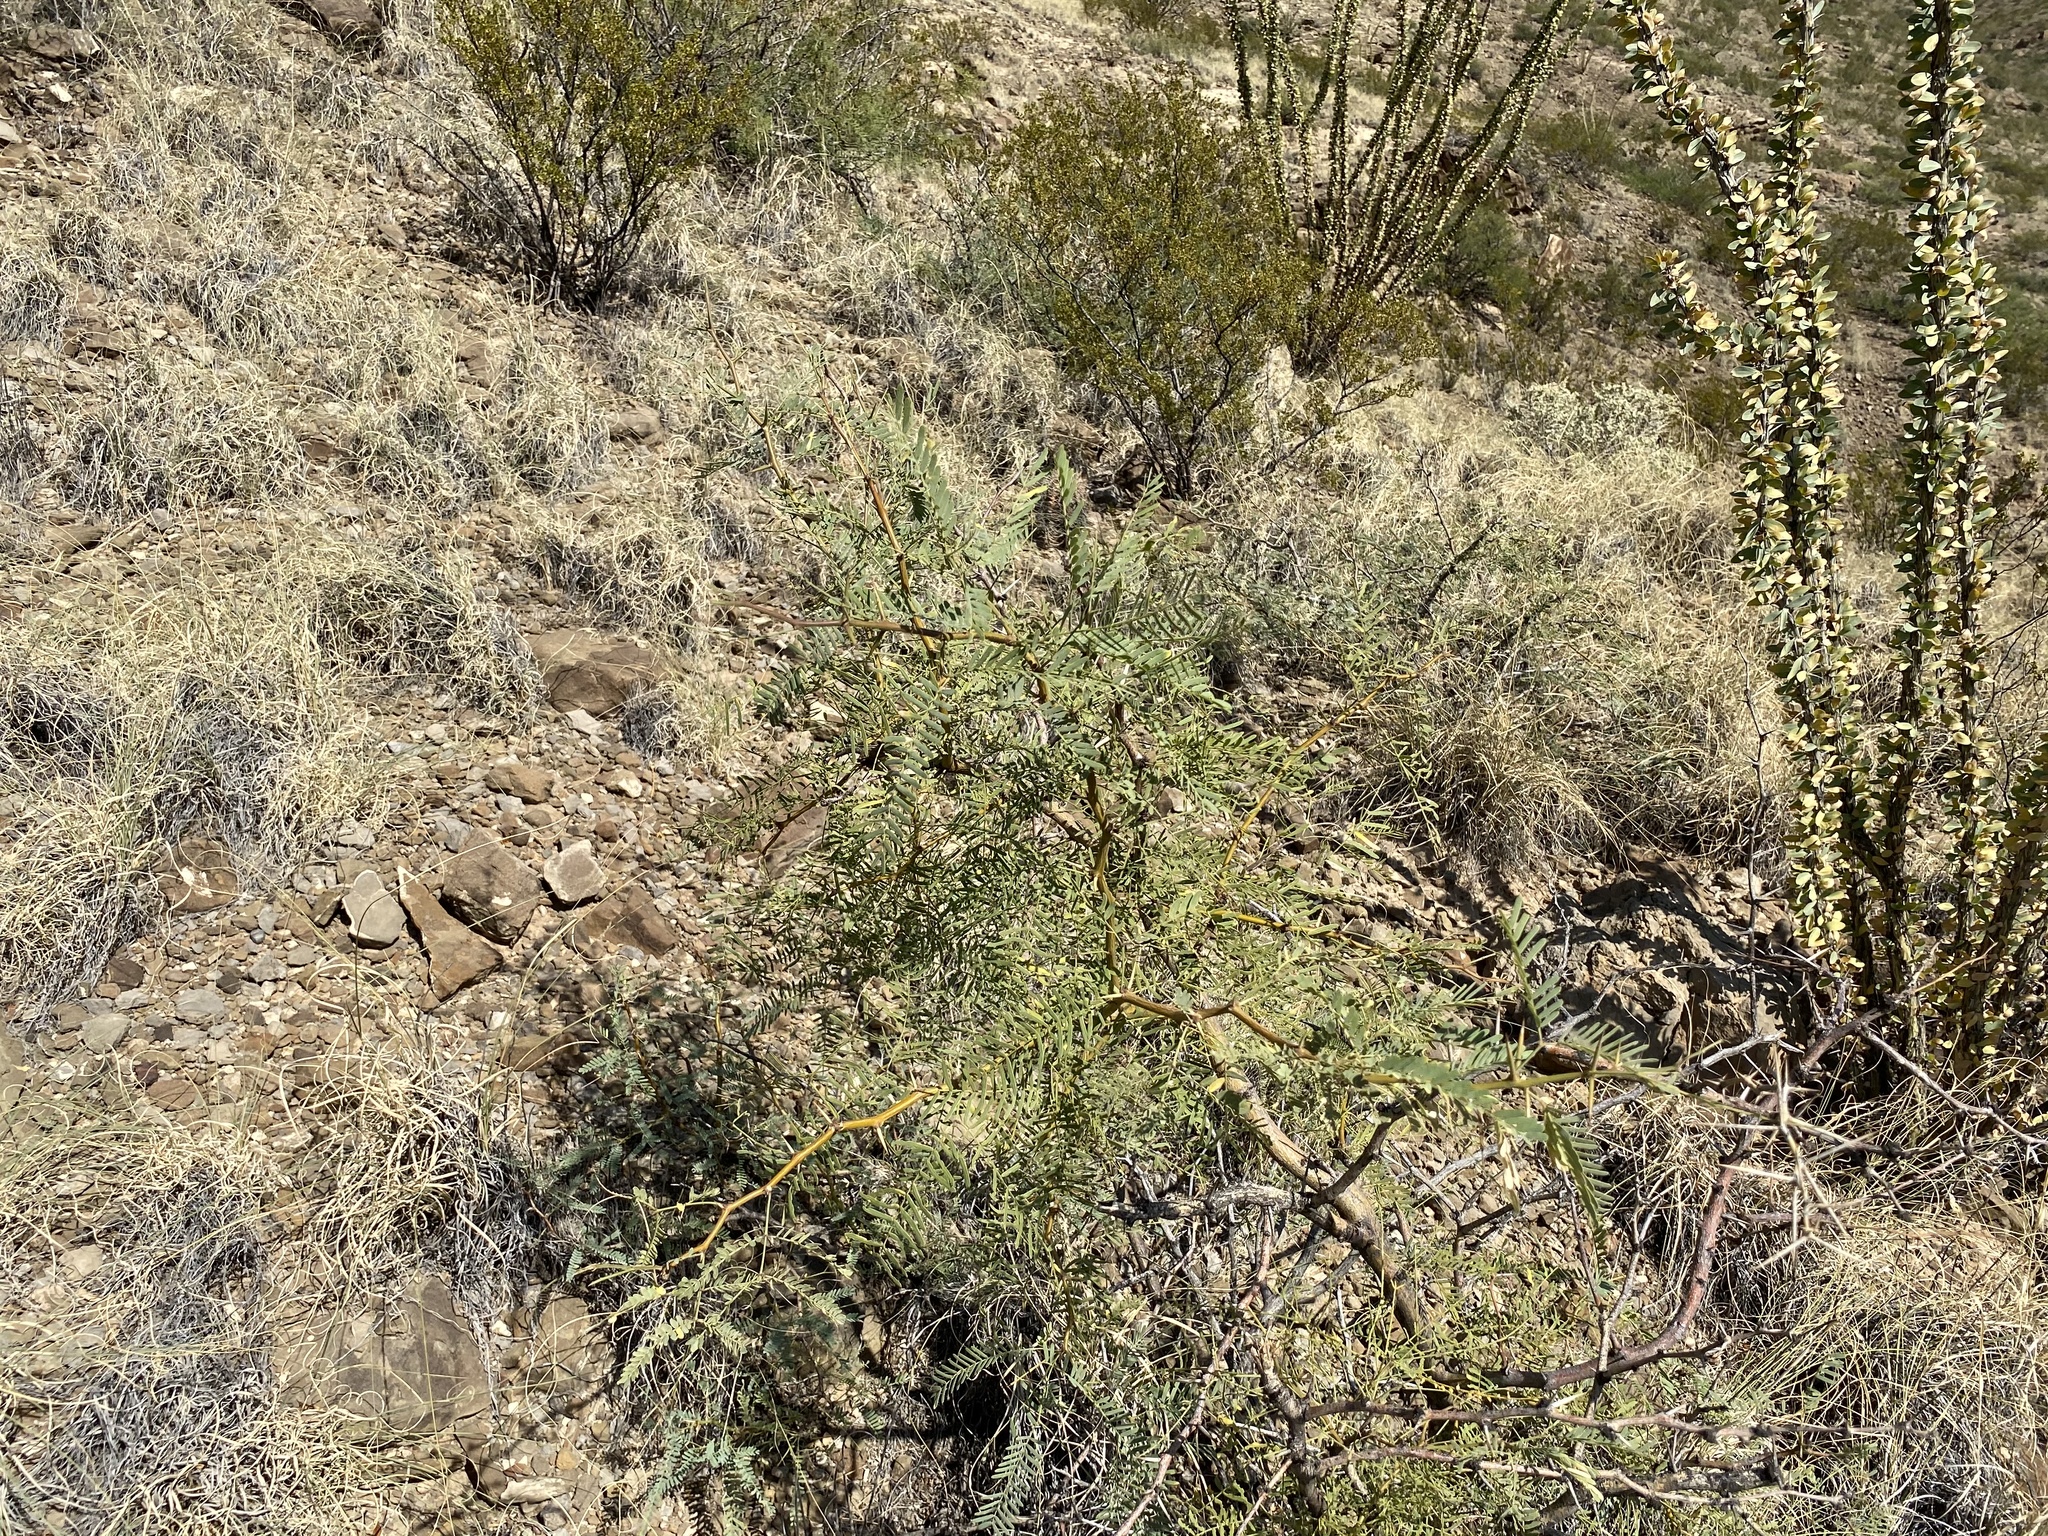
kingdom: Plantae
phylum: Tracheophyta
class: Magnoliopsida
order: Fabales
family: Fabaceae
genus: Prosopis
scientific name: Prosopis glandulosa
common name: Honey mesquite
